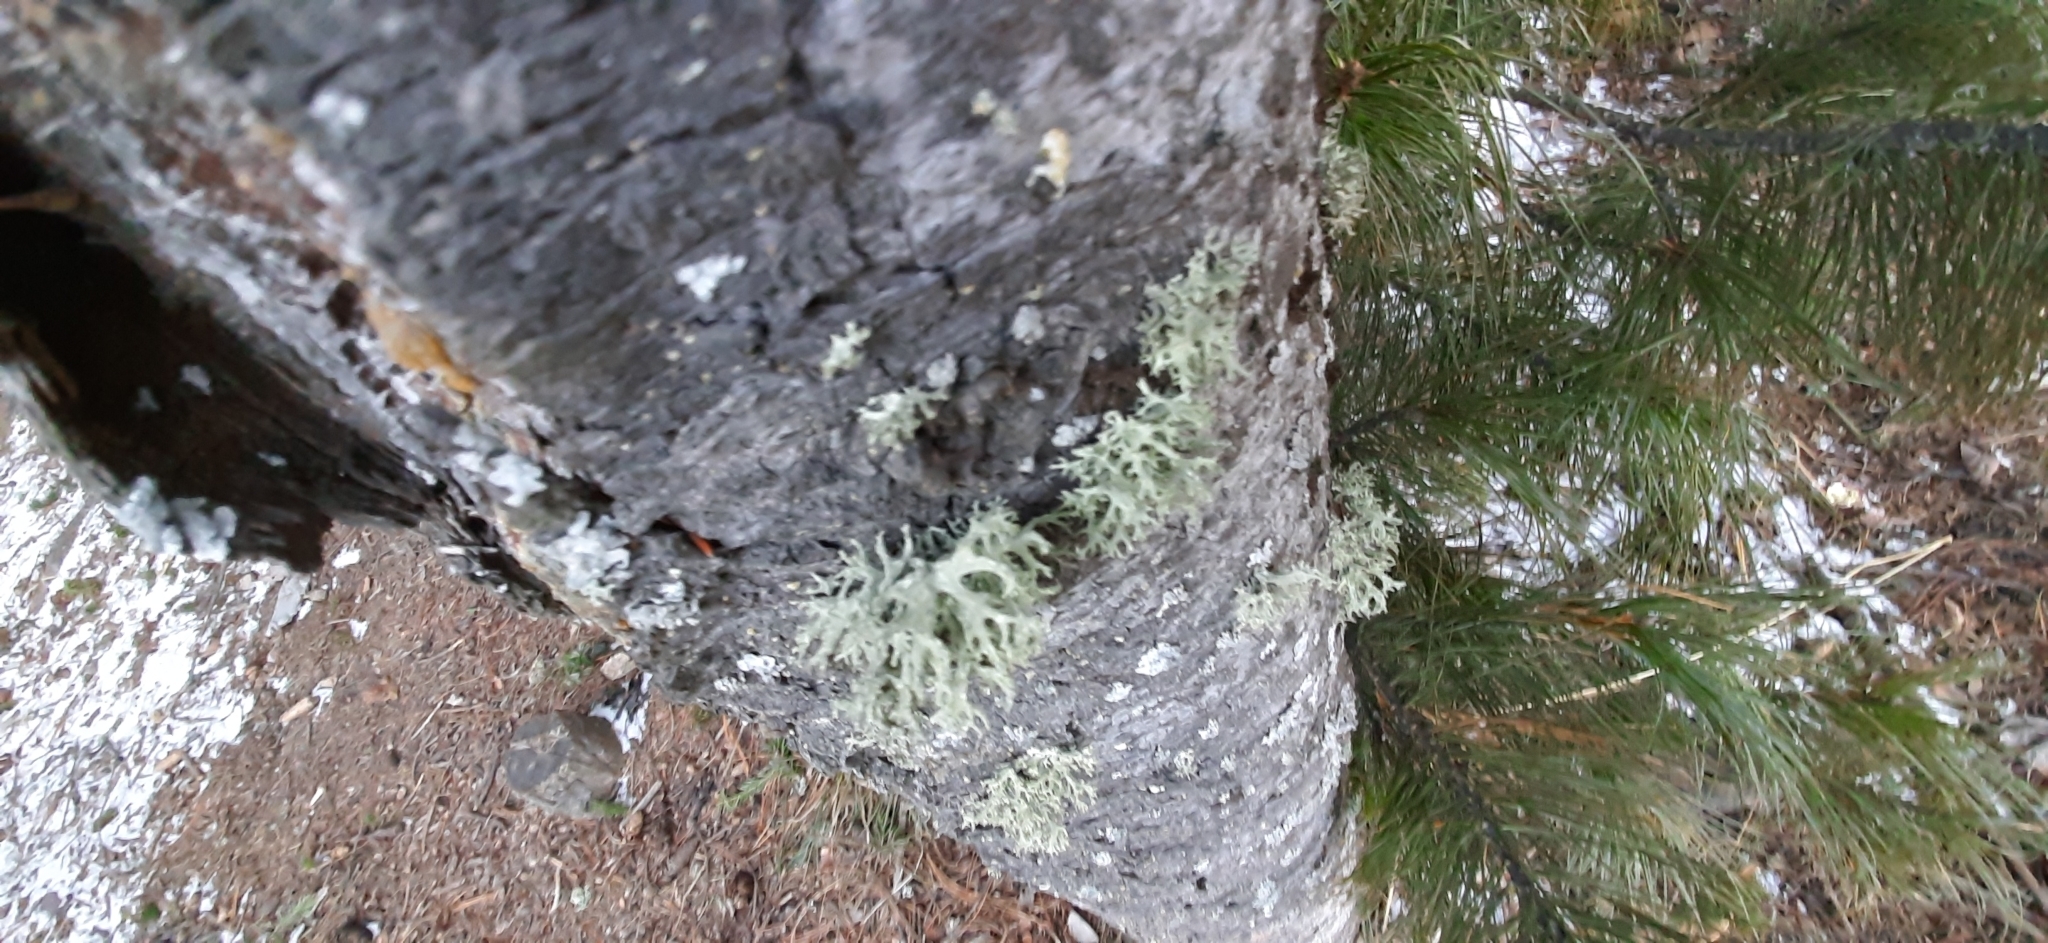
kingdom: Fungi
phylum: Ascomycota
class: Lecanoromycetes
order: Lecanorales
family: Parmeliaceae
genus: Evernia
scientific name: Evernia mesomorpha
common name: Boreal oak moss lichen
